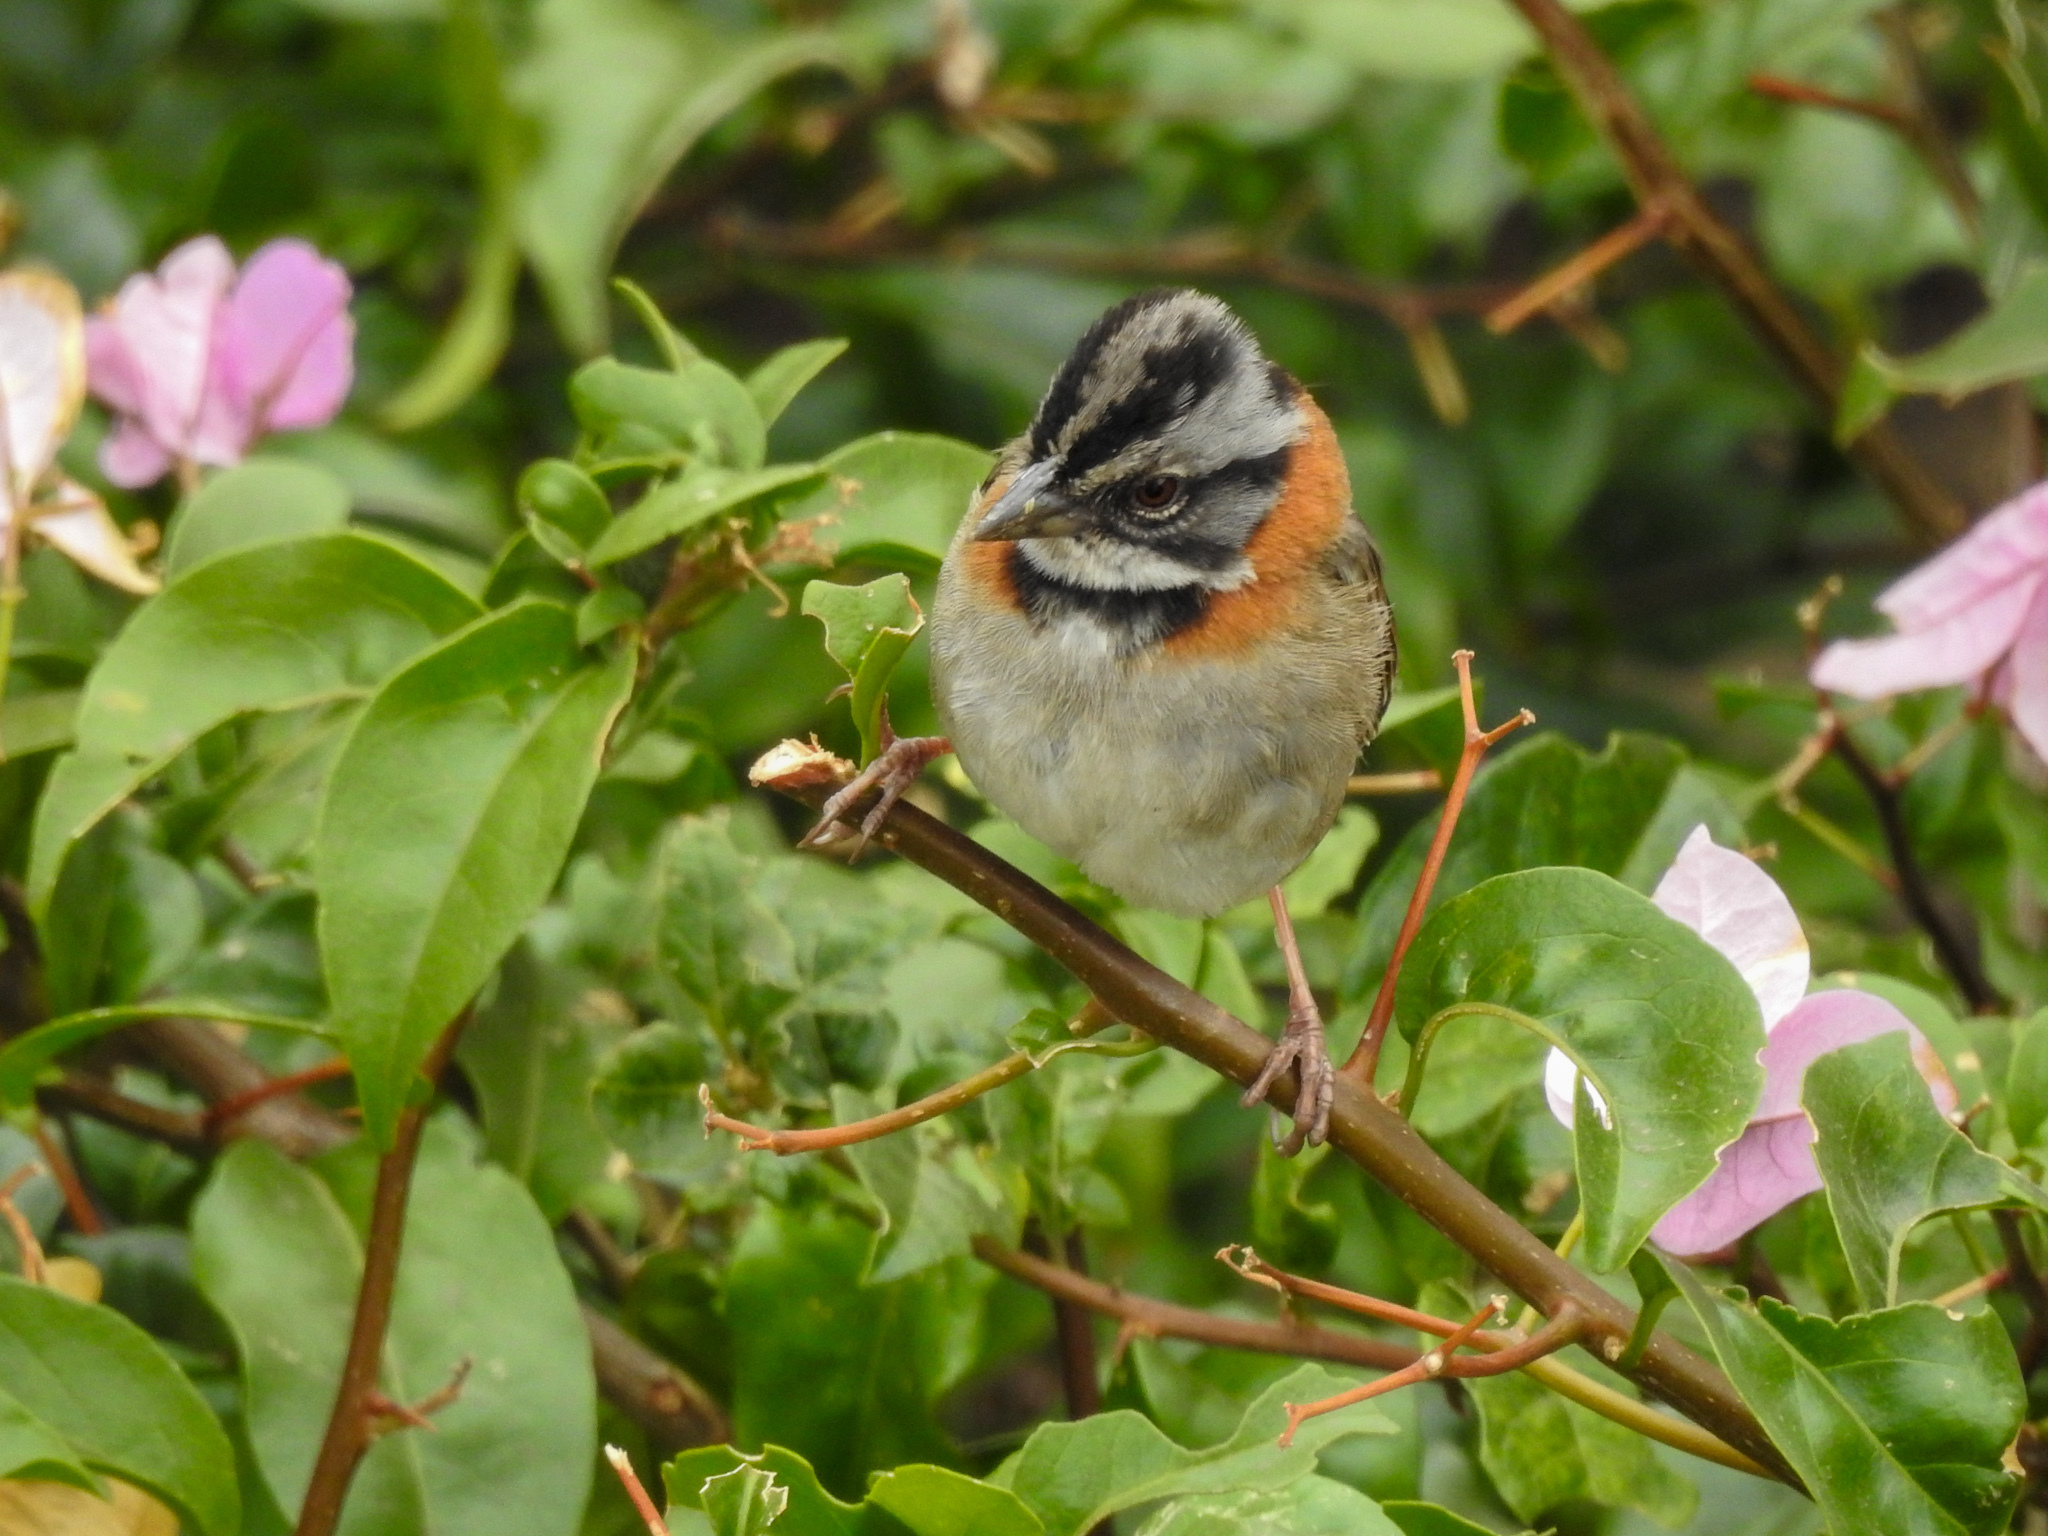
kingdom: Animalia
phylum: Chordata
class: Aves
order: Passeriformes
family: Passerellidae
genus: Zonotrichia
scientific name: Zonotrichia capensis
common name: Rufous-collared sparrow
